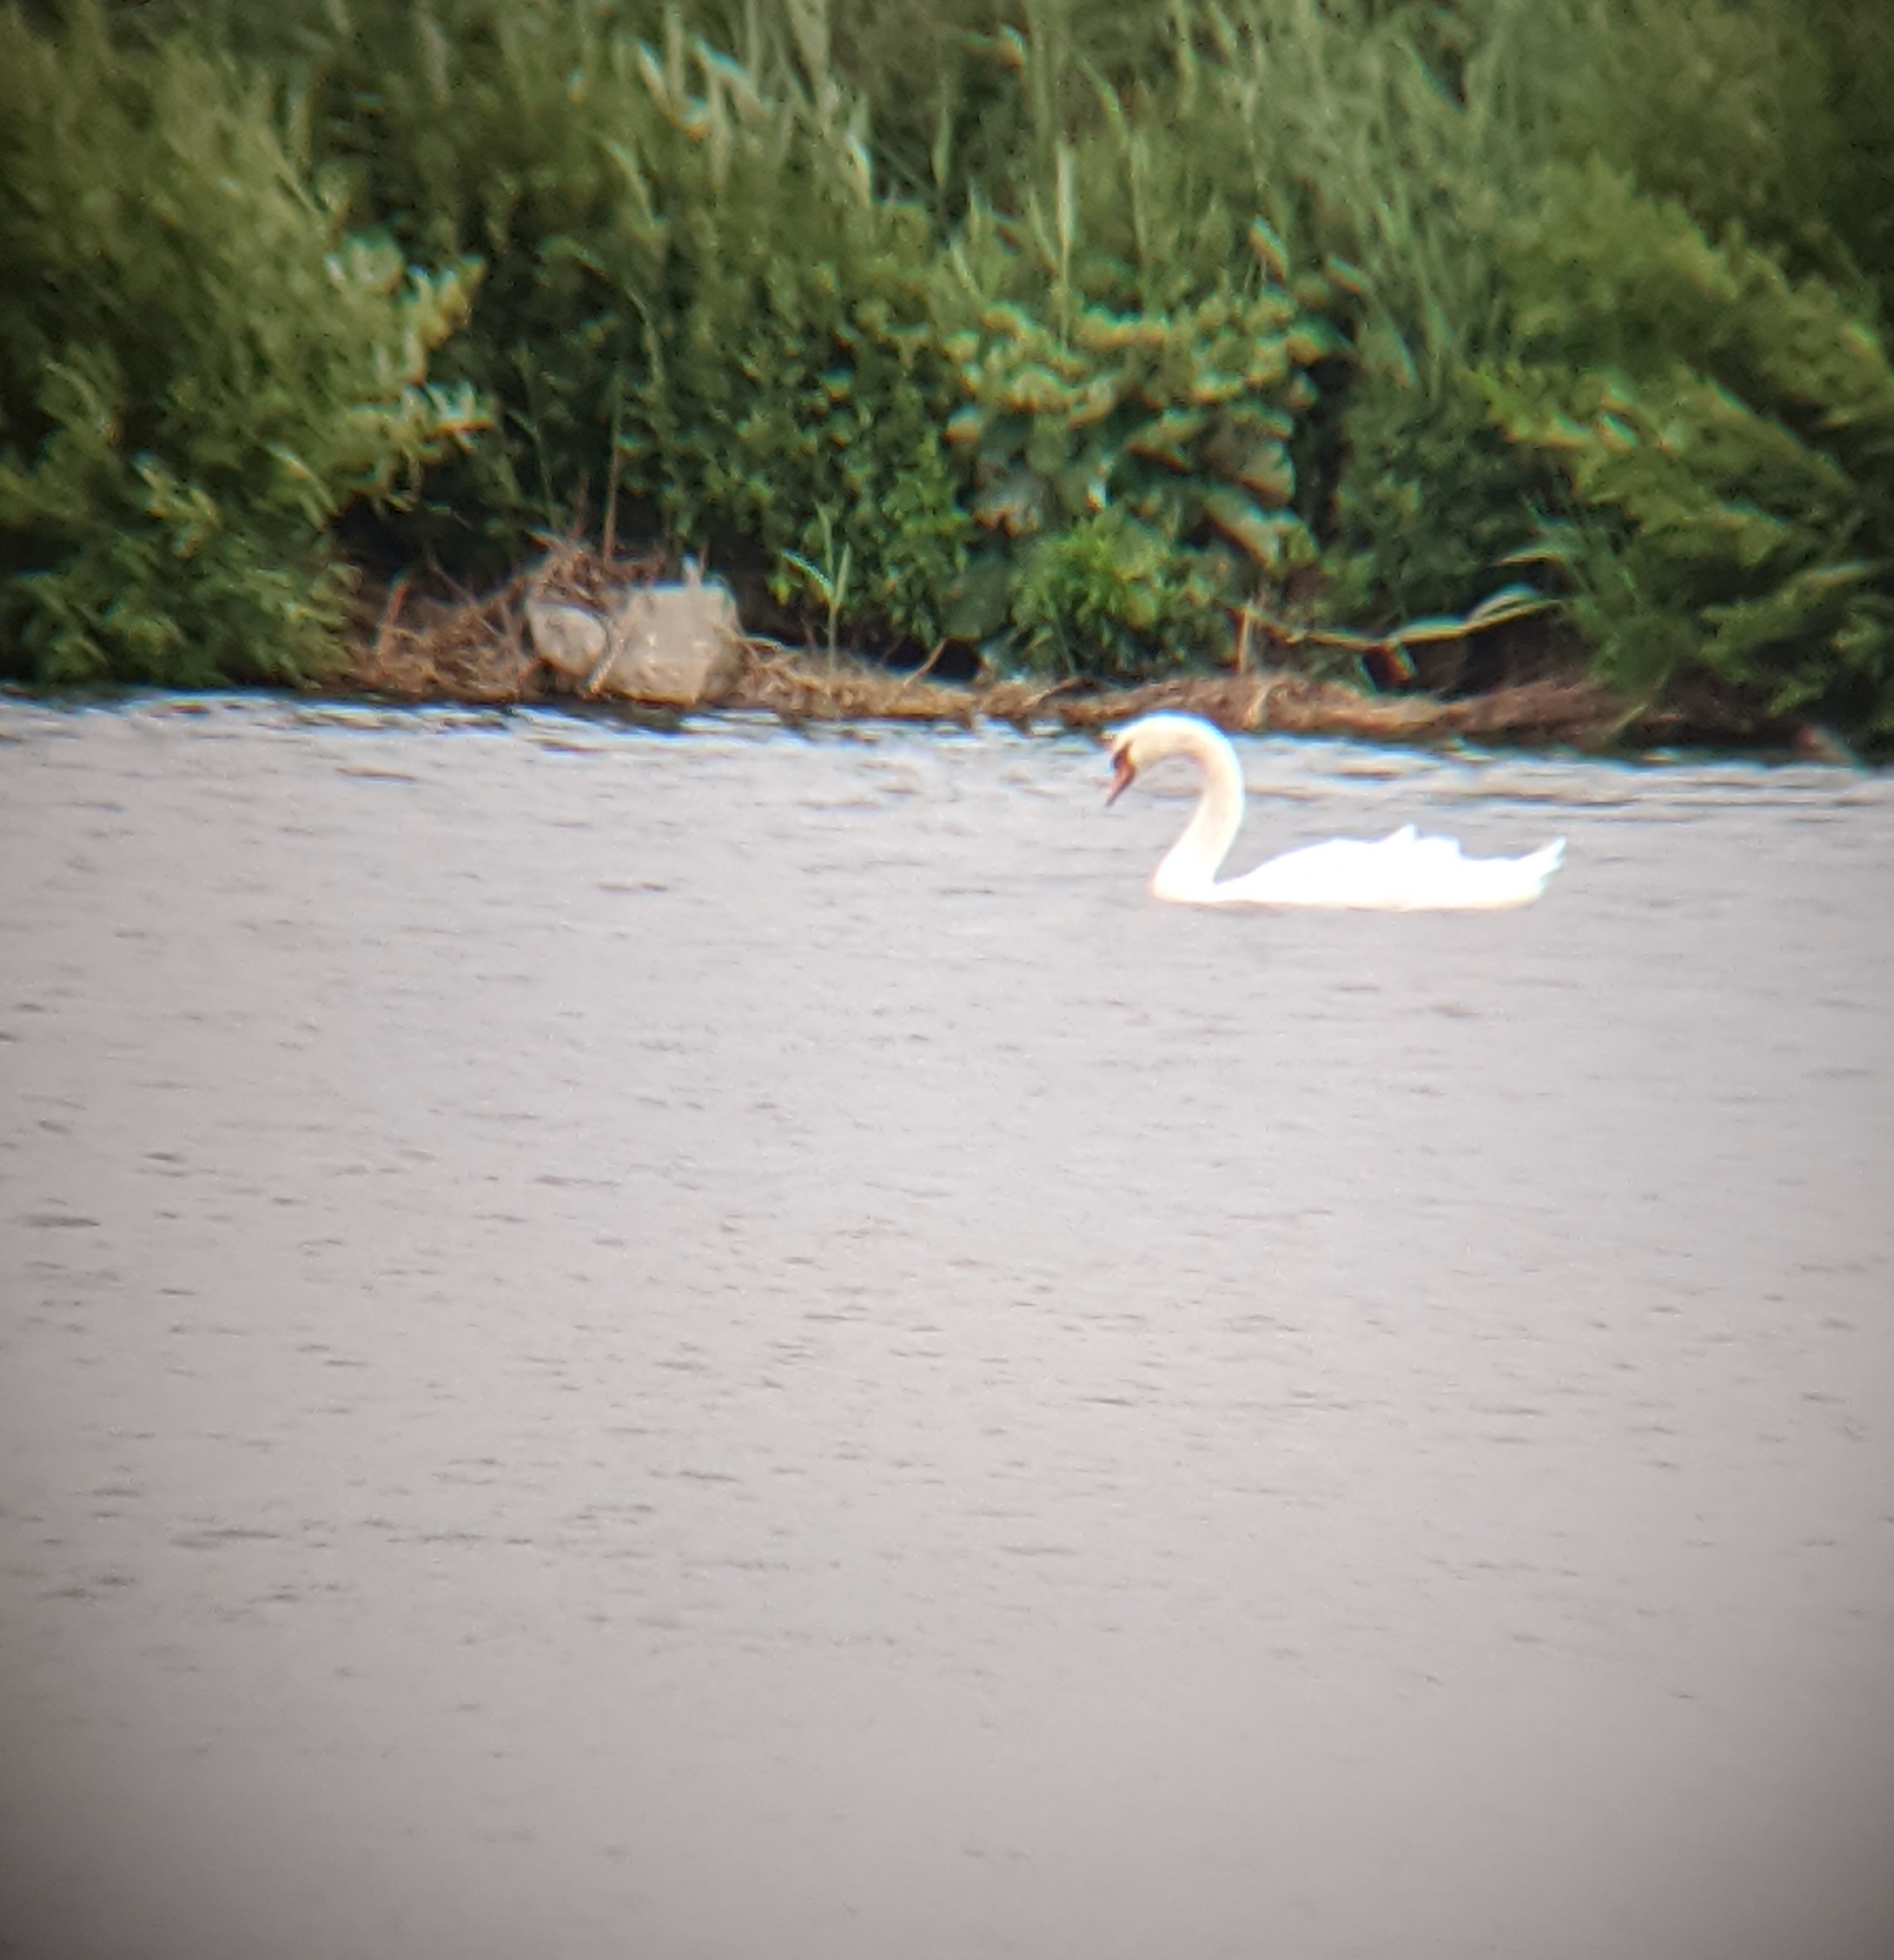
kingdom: Animalia
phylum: Chordata
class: Aves
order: Anseriformes
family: Anatidae
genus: Cygnus
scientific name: Cygnus olor
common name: Mute swan
